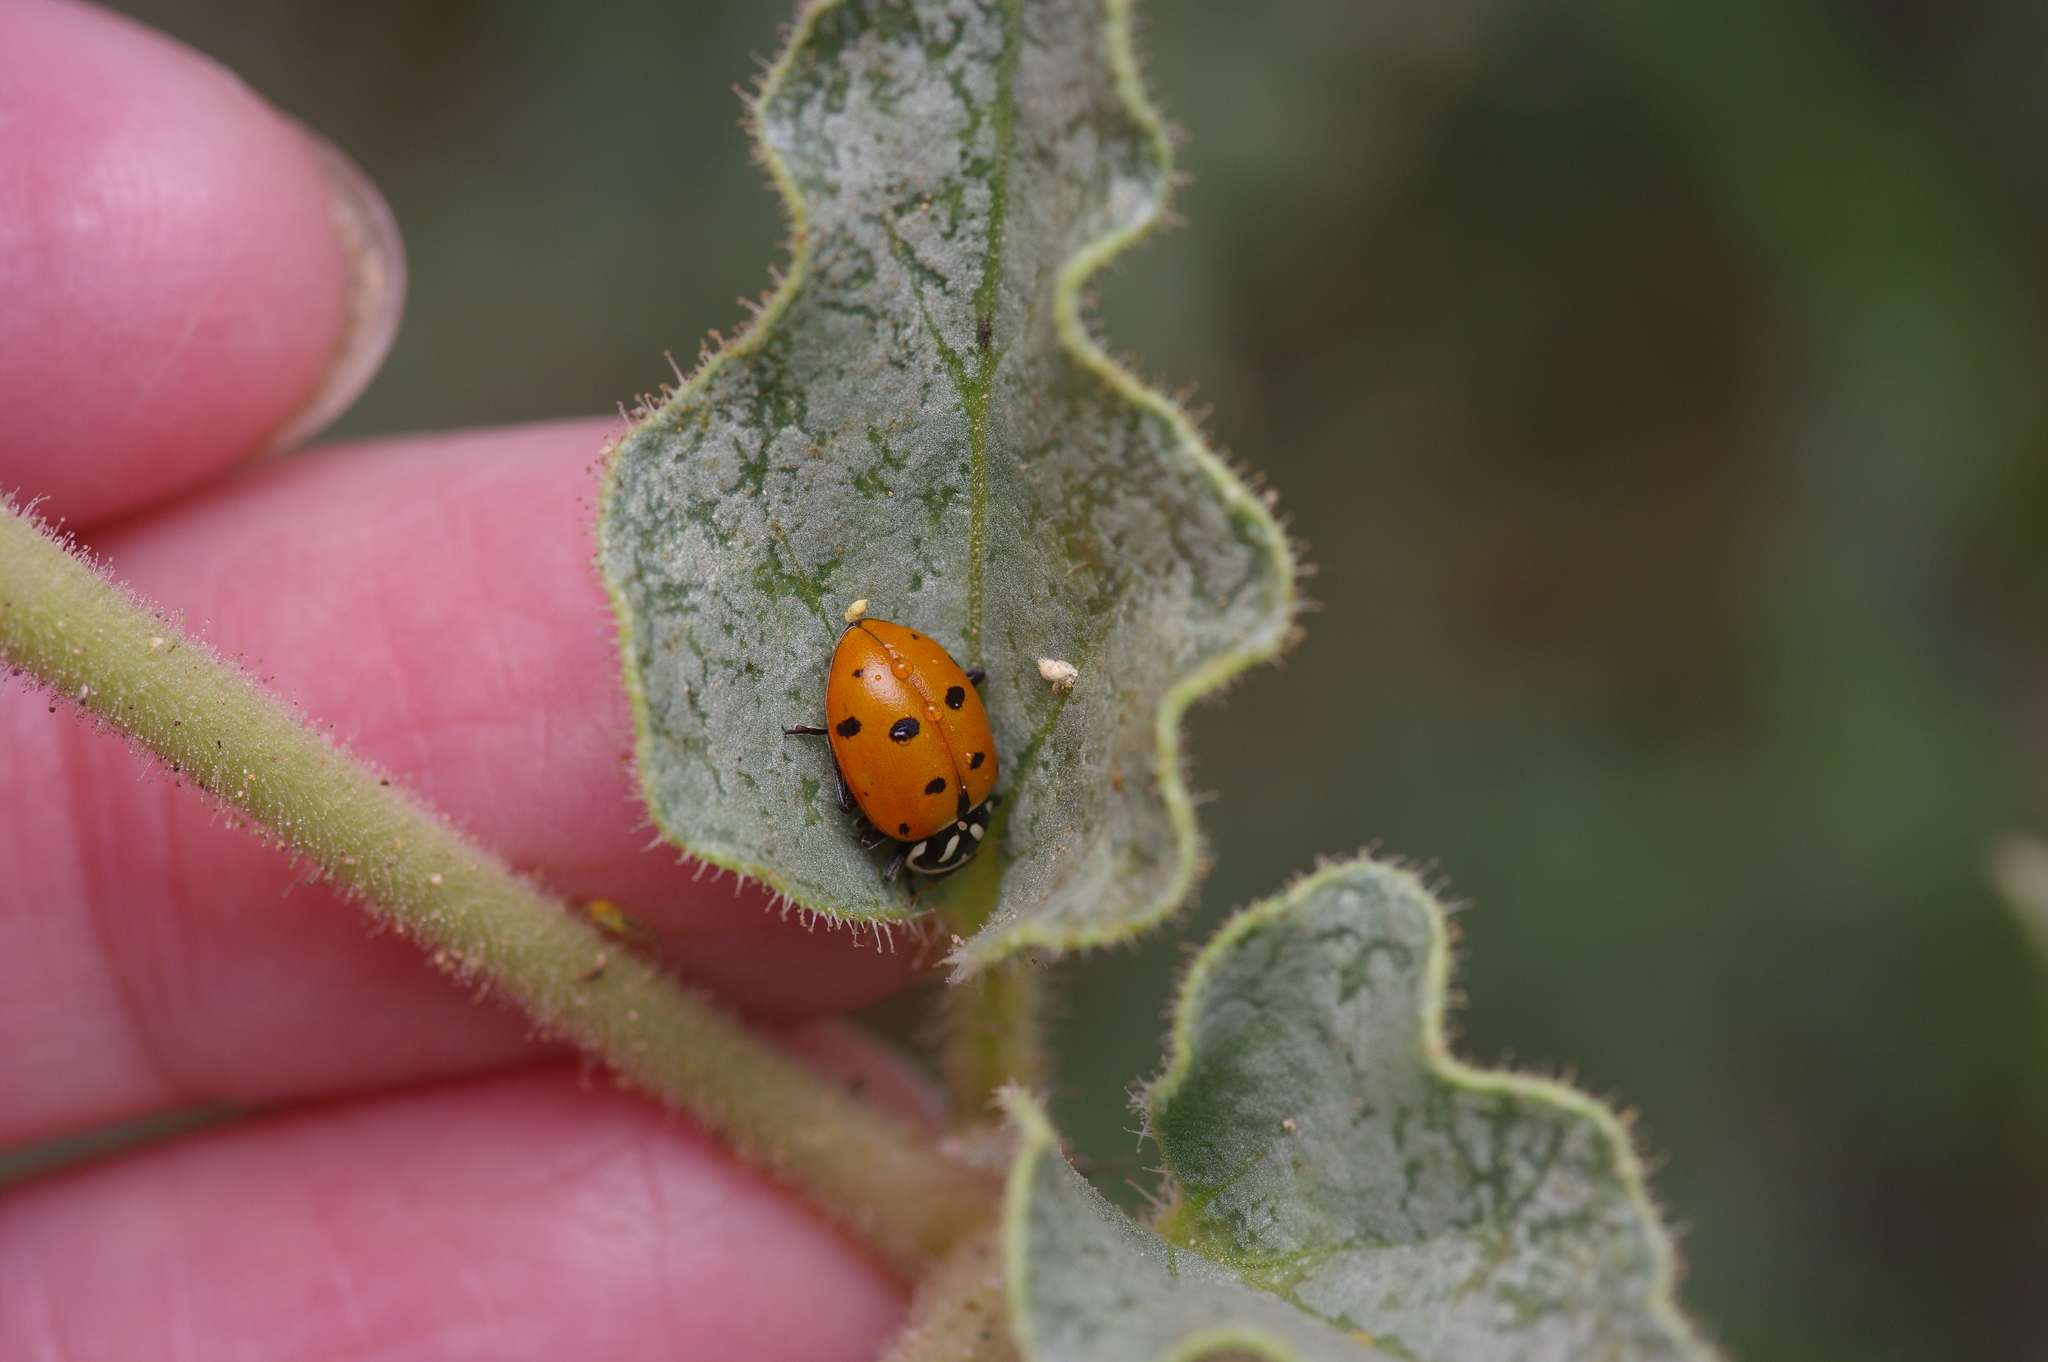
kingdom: Animalia
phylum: Arthropoda
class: Insecta
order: Coleoptera
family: Coccinellidae
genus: Hippodamia
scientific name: Hippodamia convergens
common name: Convergent lady beetle
